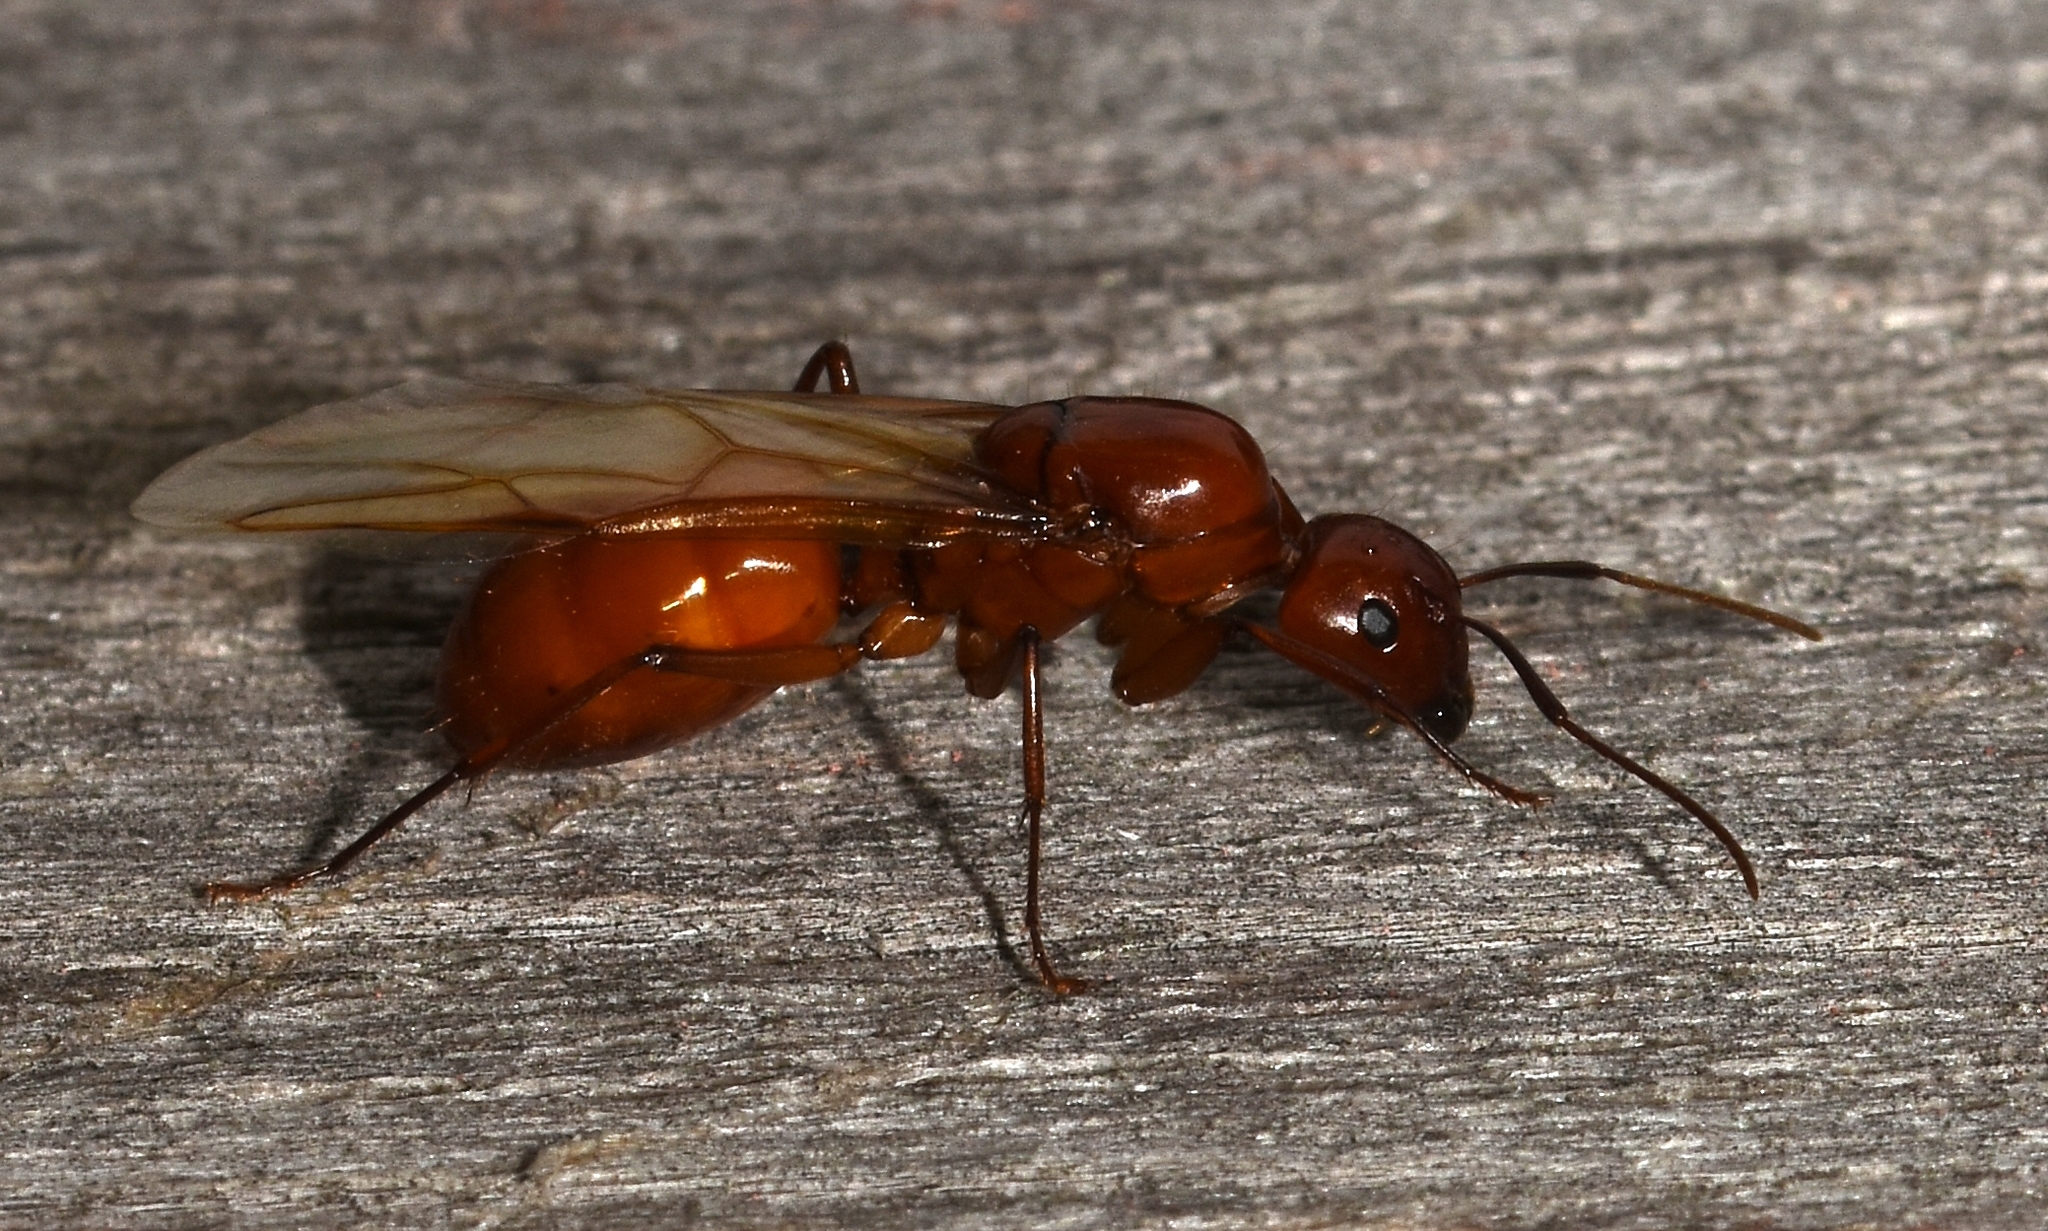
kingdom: Animalia
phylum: Arthropoda
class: Insecta
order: Hymenoptera
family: Formicidae
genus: Camponotus
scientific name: Camponotus castaneus
